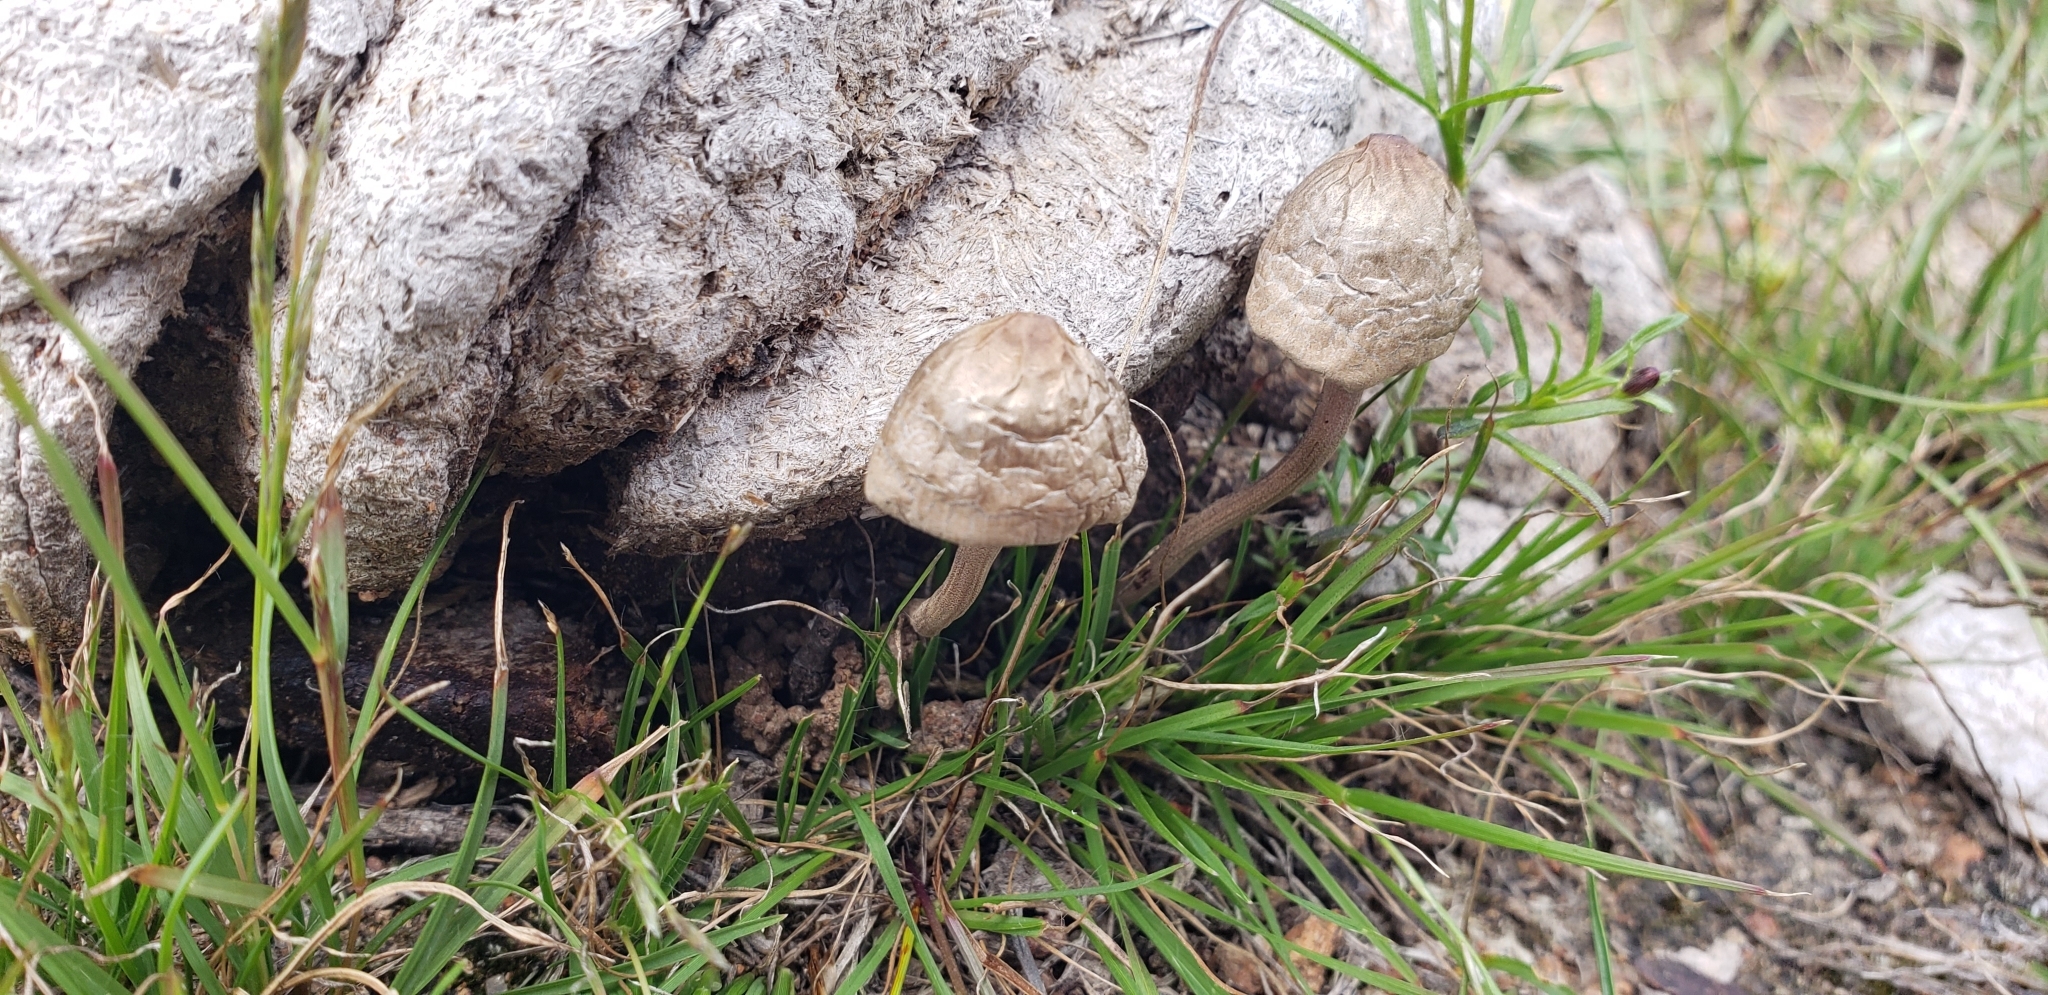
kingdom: Fungi
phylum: Basidiomycota
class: Agaricomycetes
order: Agaricales
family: Bolbitiaceae
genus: Panaeolus
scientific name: Panaeolus antillarum
